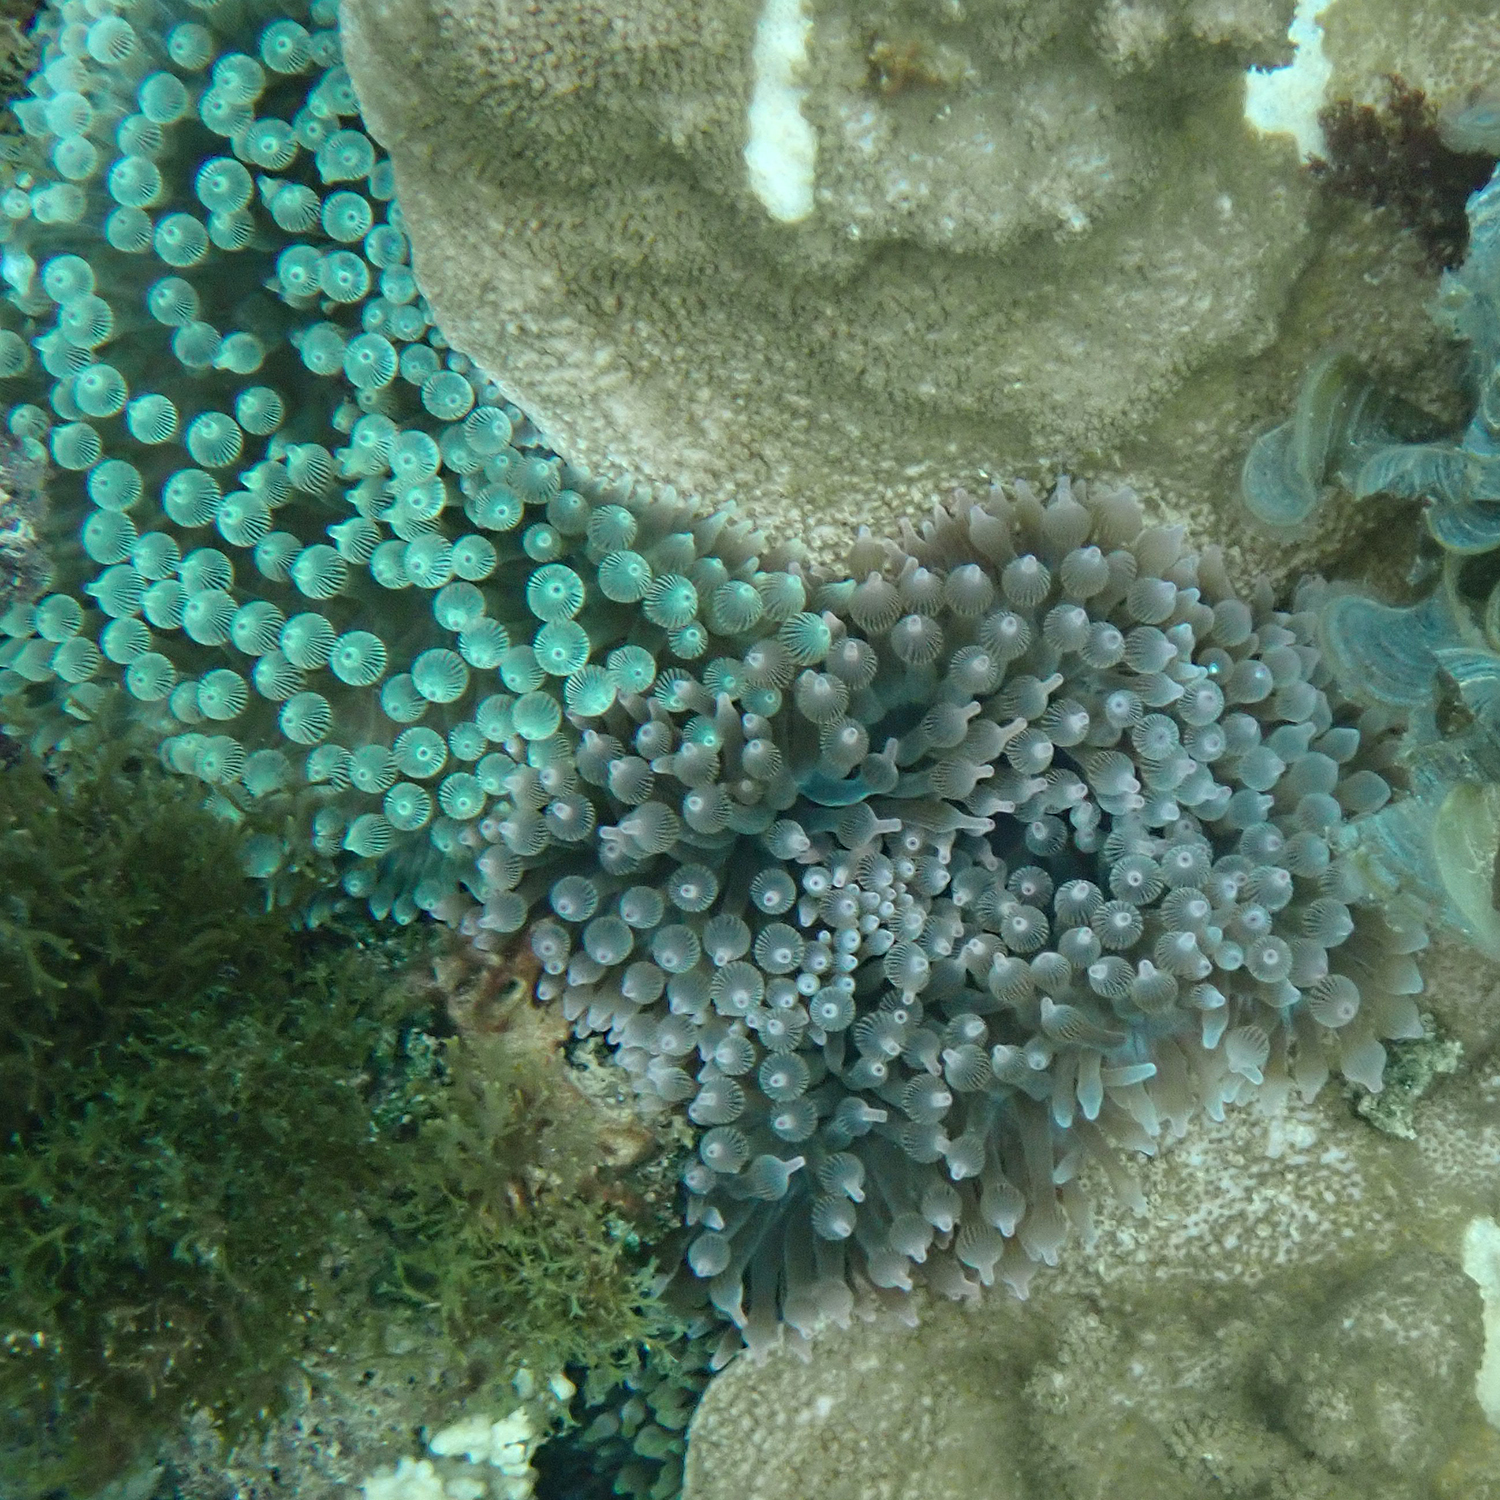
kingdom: Animalia
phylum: Cnidaria
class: Anthozoa
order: Actiniaria
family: Actiniidae
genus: Entacmaea
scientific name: Entacmaea quadricolor
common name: Bulb tentacle sea anemone
